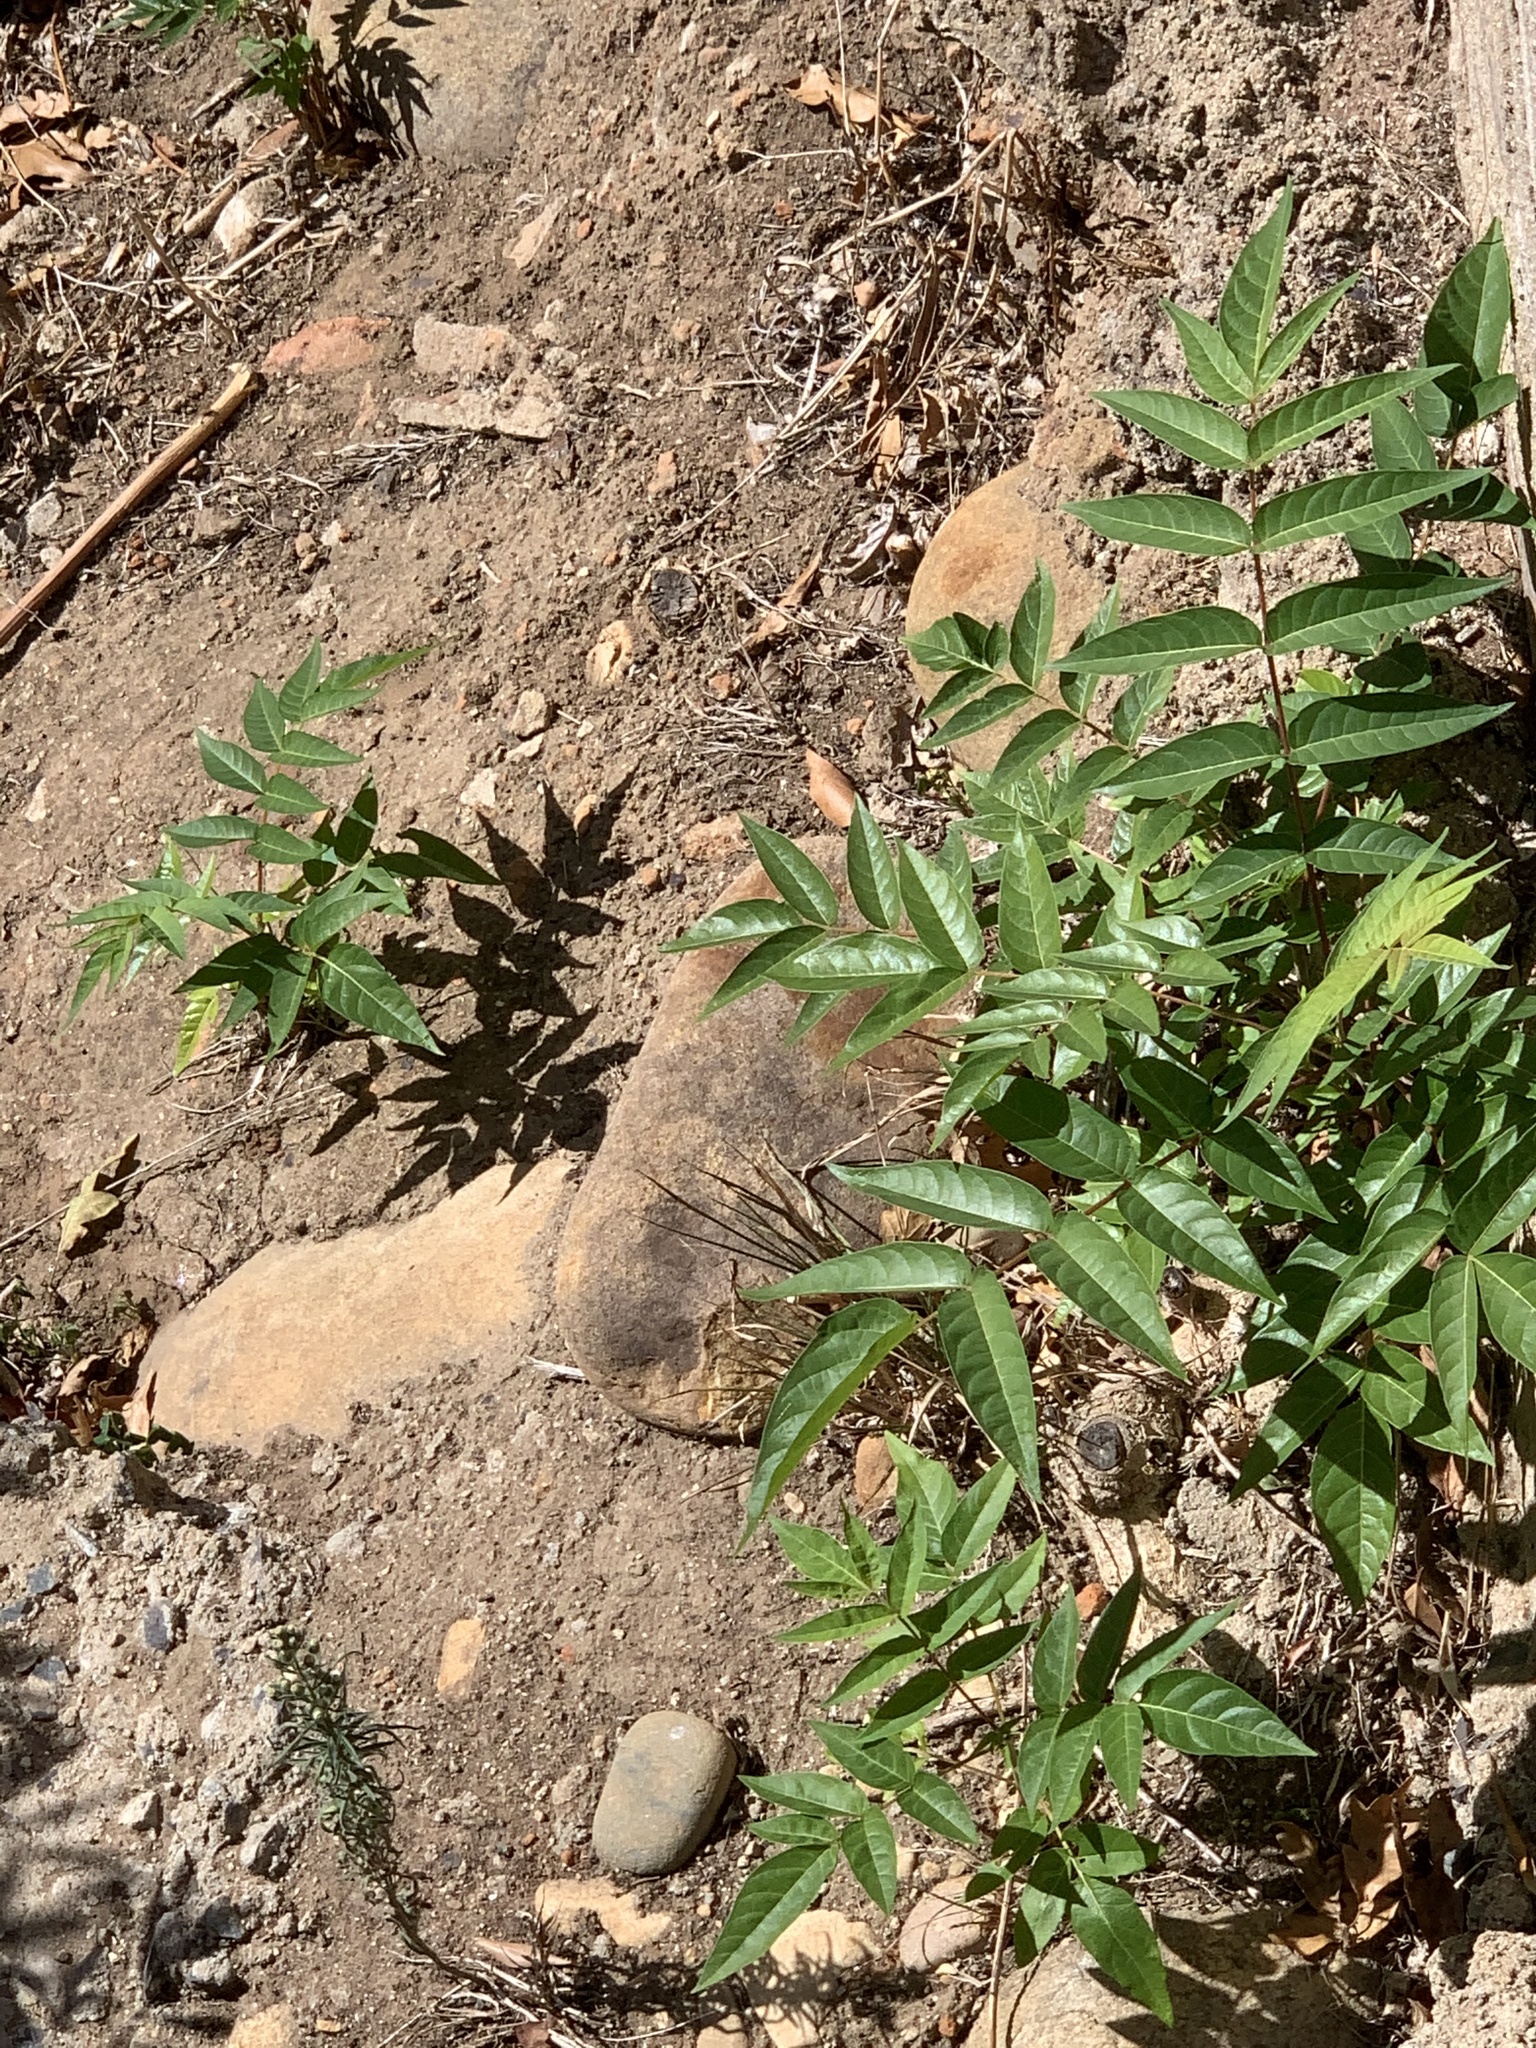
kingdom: Plantae
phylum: Tracheophyta
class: Magnoliopsida
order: Sapindales
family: Simaroubaceae
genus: Ailanthus
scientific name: Ailanthus altissima
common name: Tree-of-heaven
